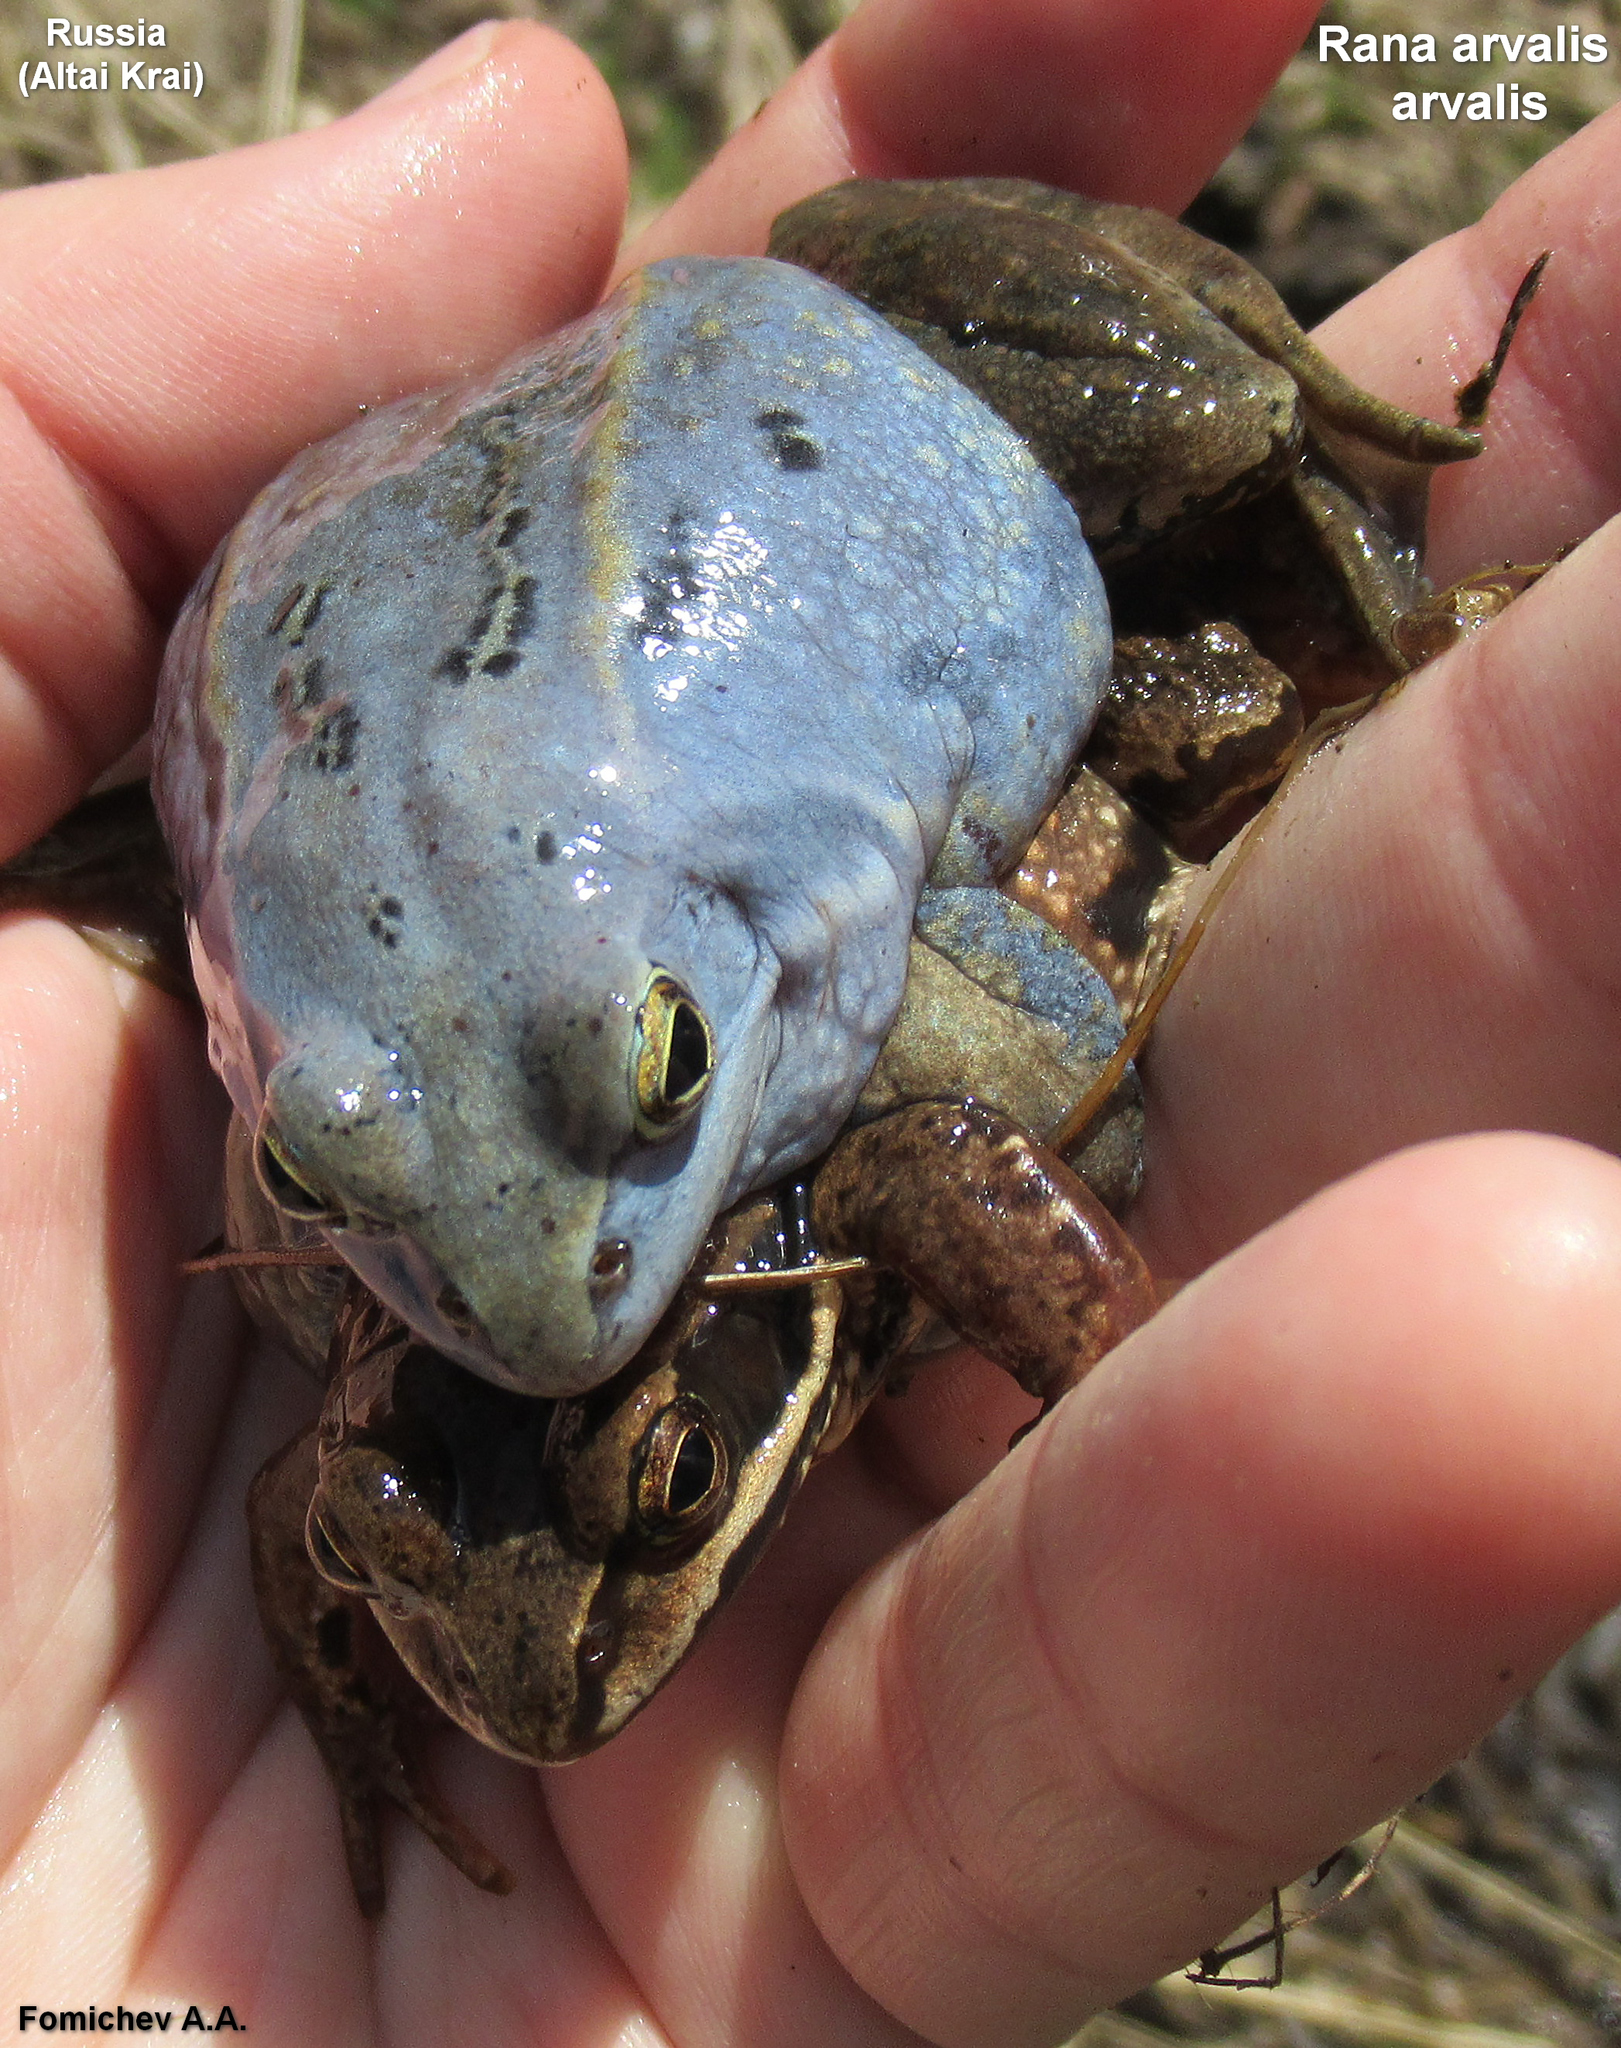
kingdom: Animalia
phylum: Chordata
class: Amphibia
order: Anura
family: Ranidae
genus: Rana
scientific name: Rana arvalis
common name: Moor frog
